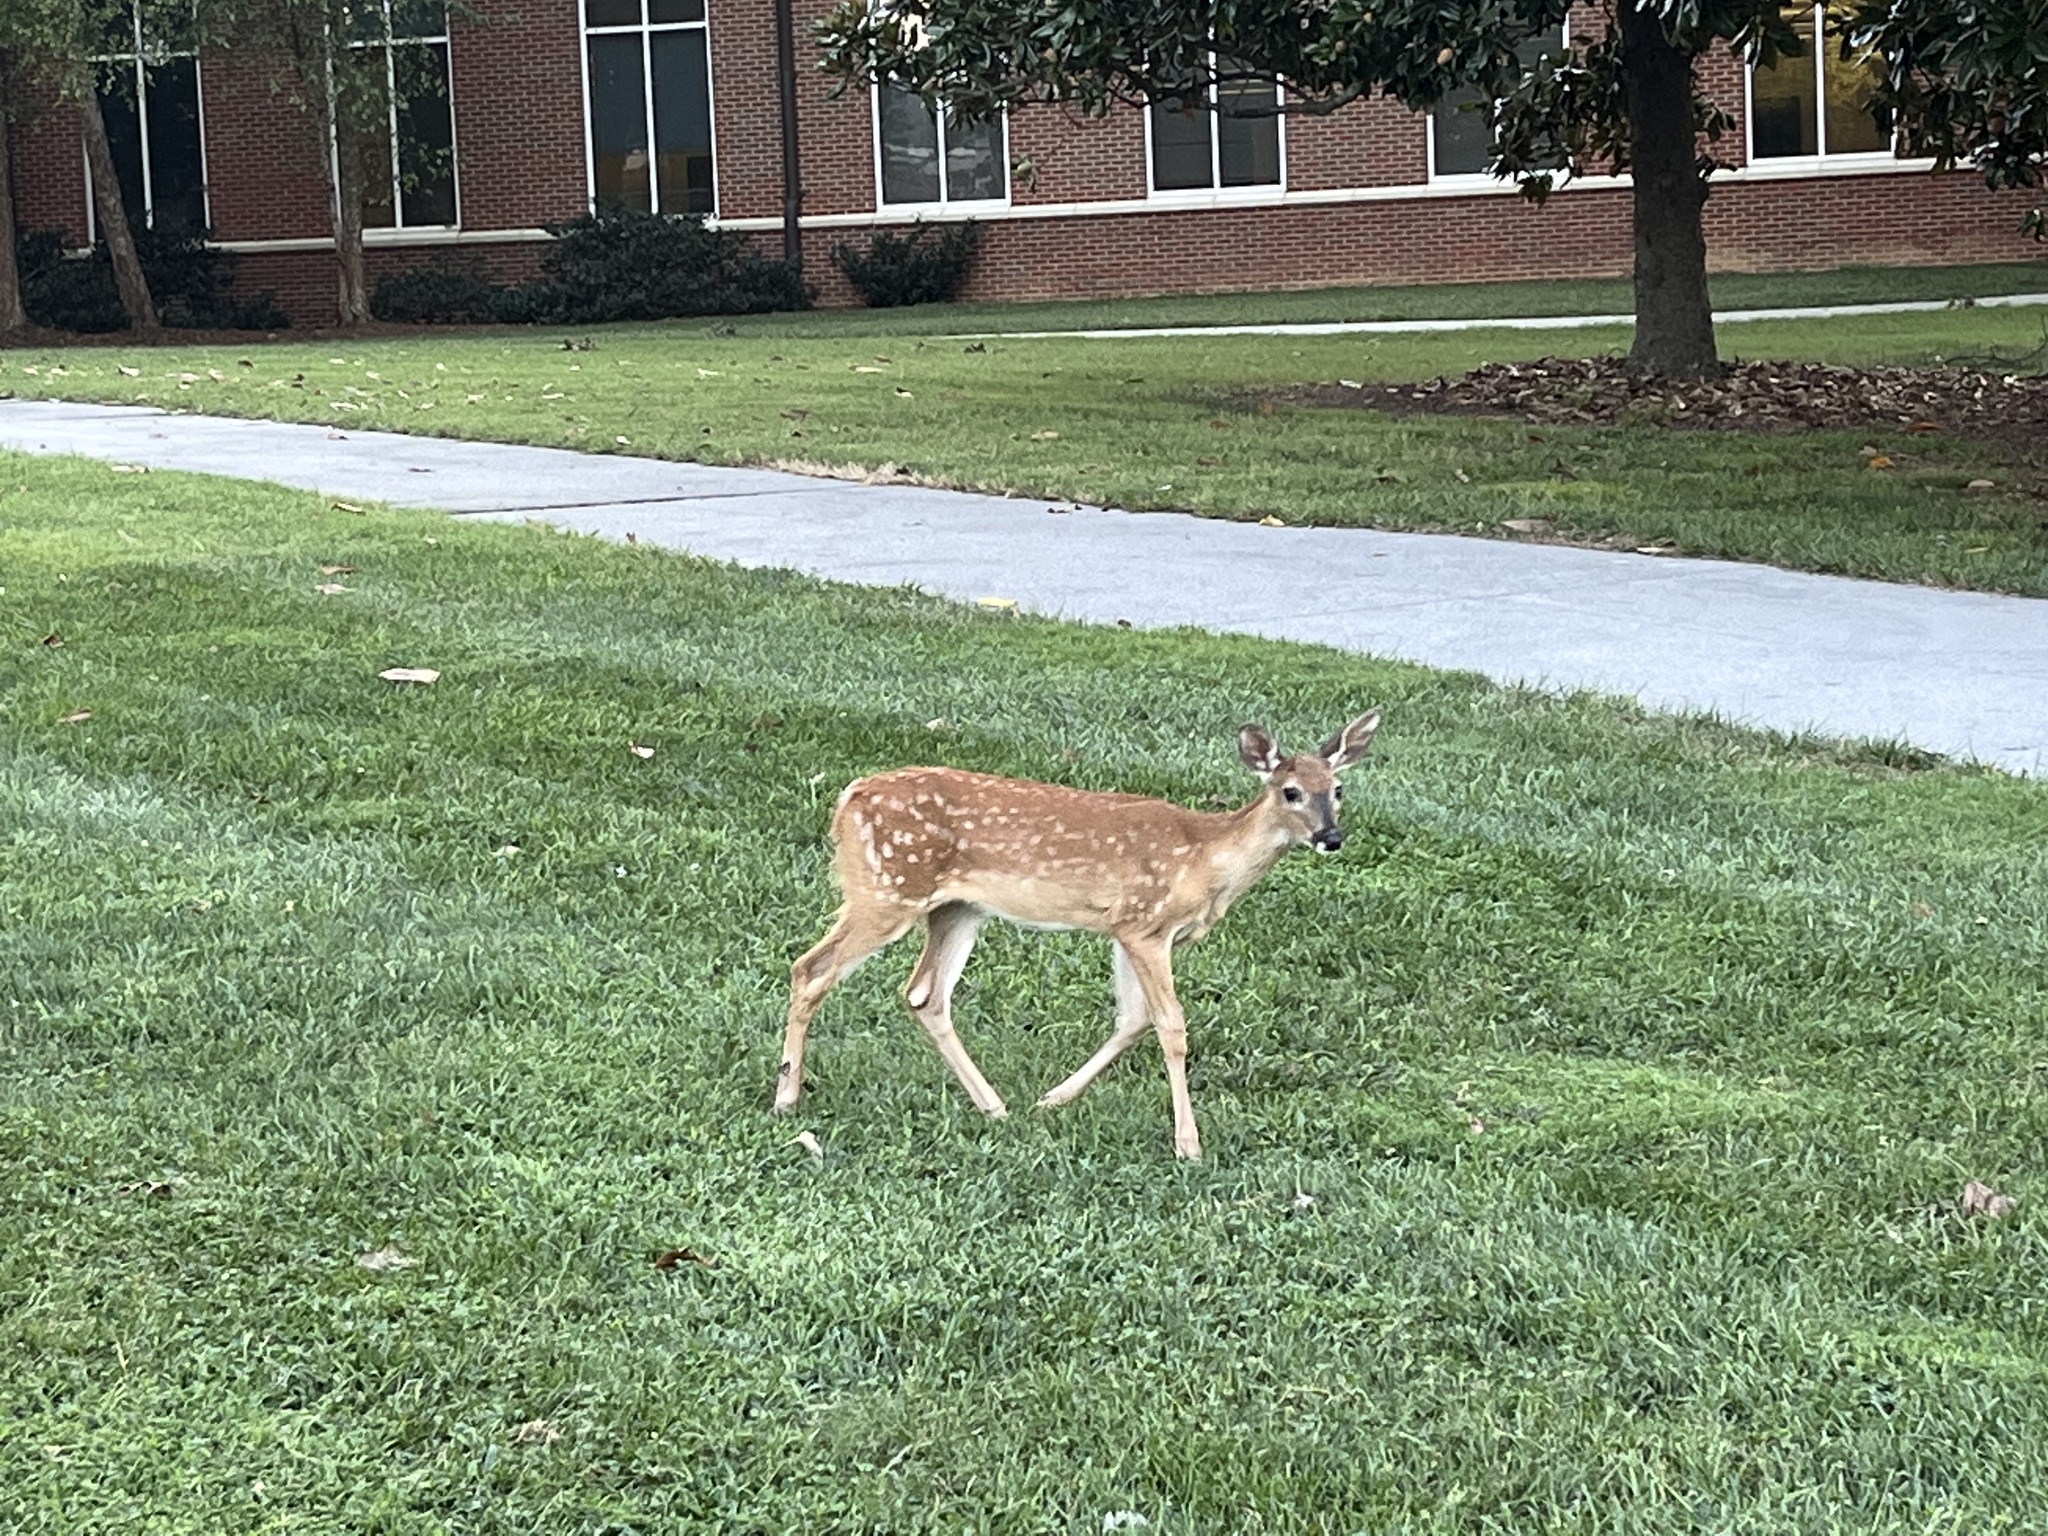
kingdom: Animalia
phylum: Chordata
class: Mammalia
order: Artiodactyla
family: Cervidae
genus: Odocoileus
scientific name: Odocoileus virginianus
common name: White-tailed deer
